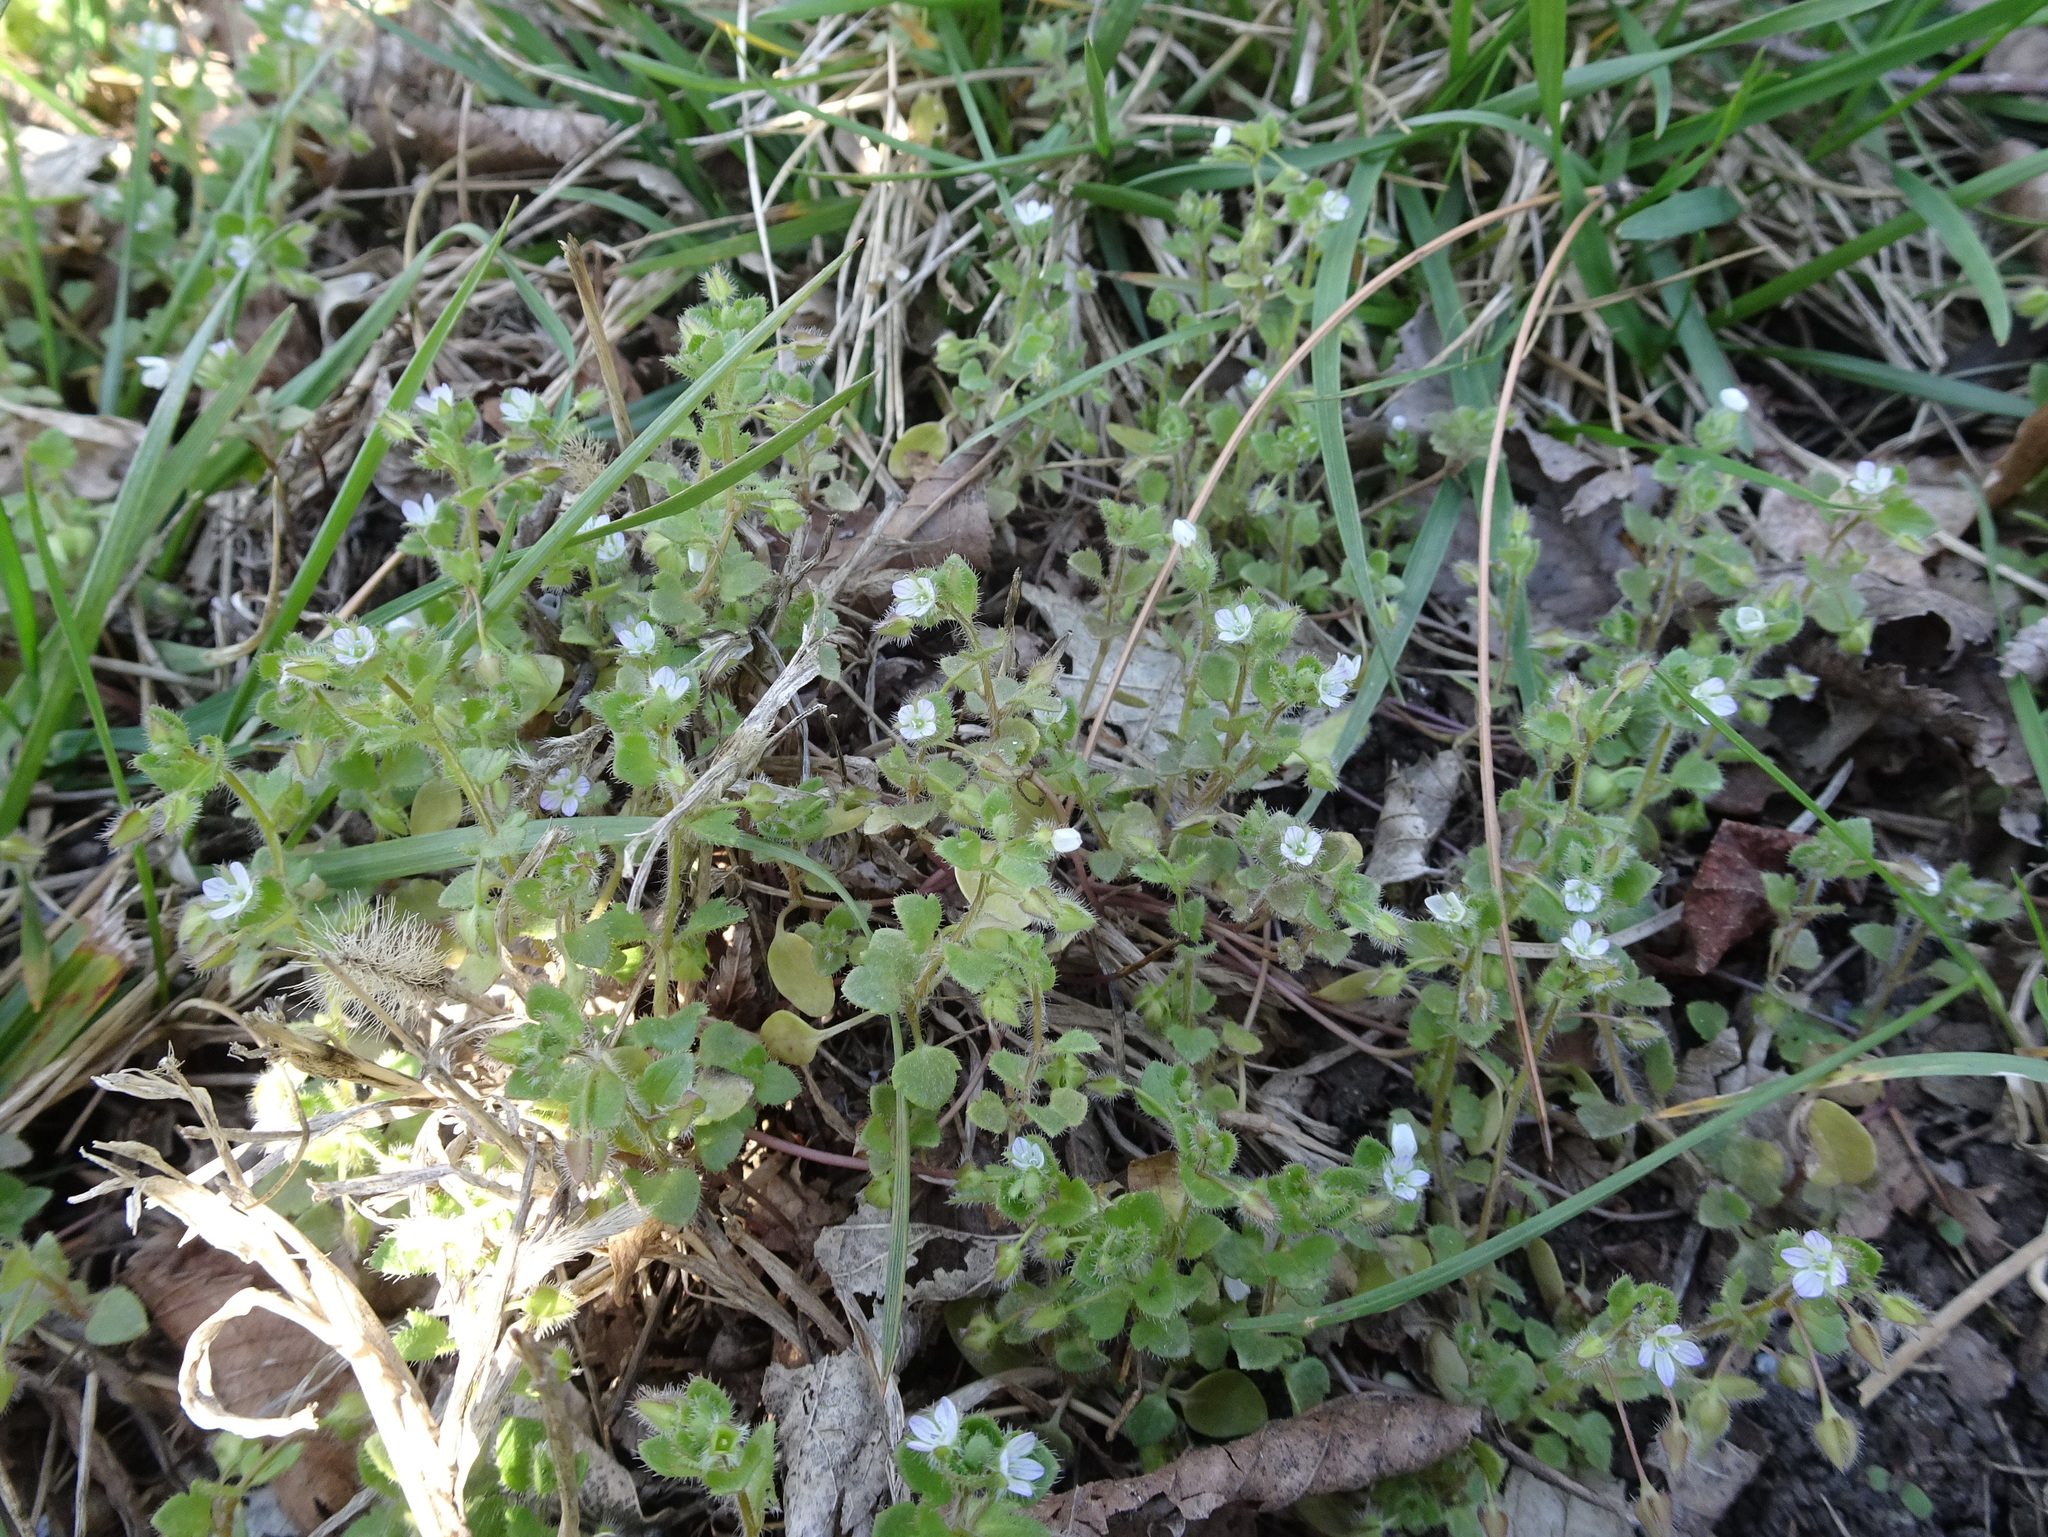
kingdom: Plantae
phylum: Tracheophyta
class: Magnoliopsida
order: Lamiales
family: Plantaginaceae
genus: Veronica
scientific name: Veronica hederifolia
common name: Ivy-leaved speedwell
